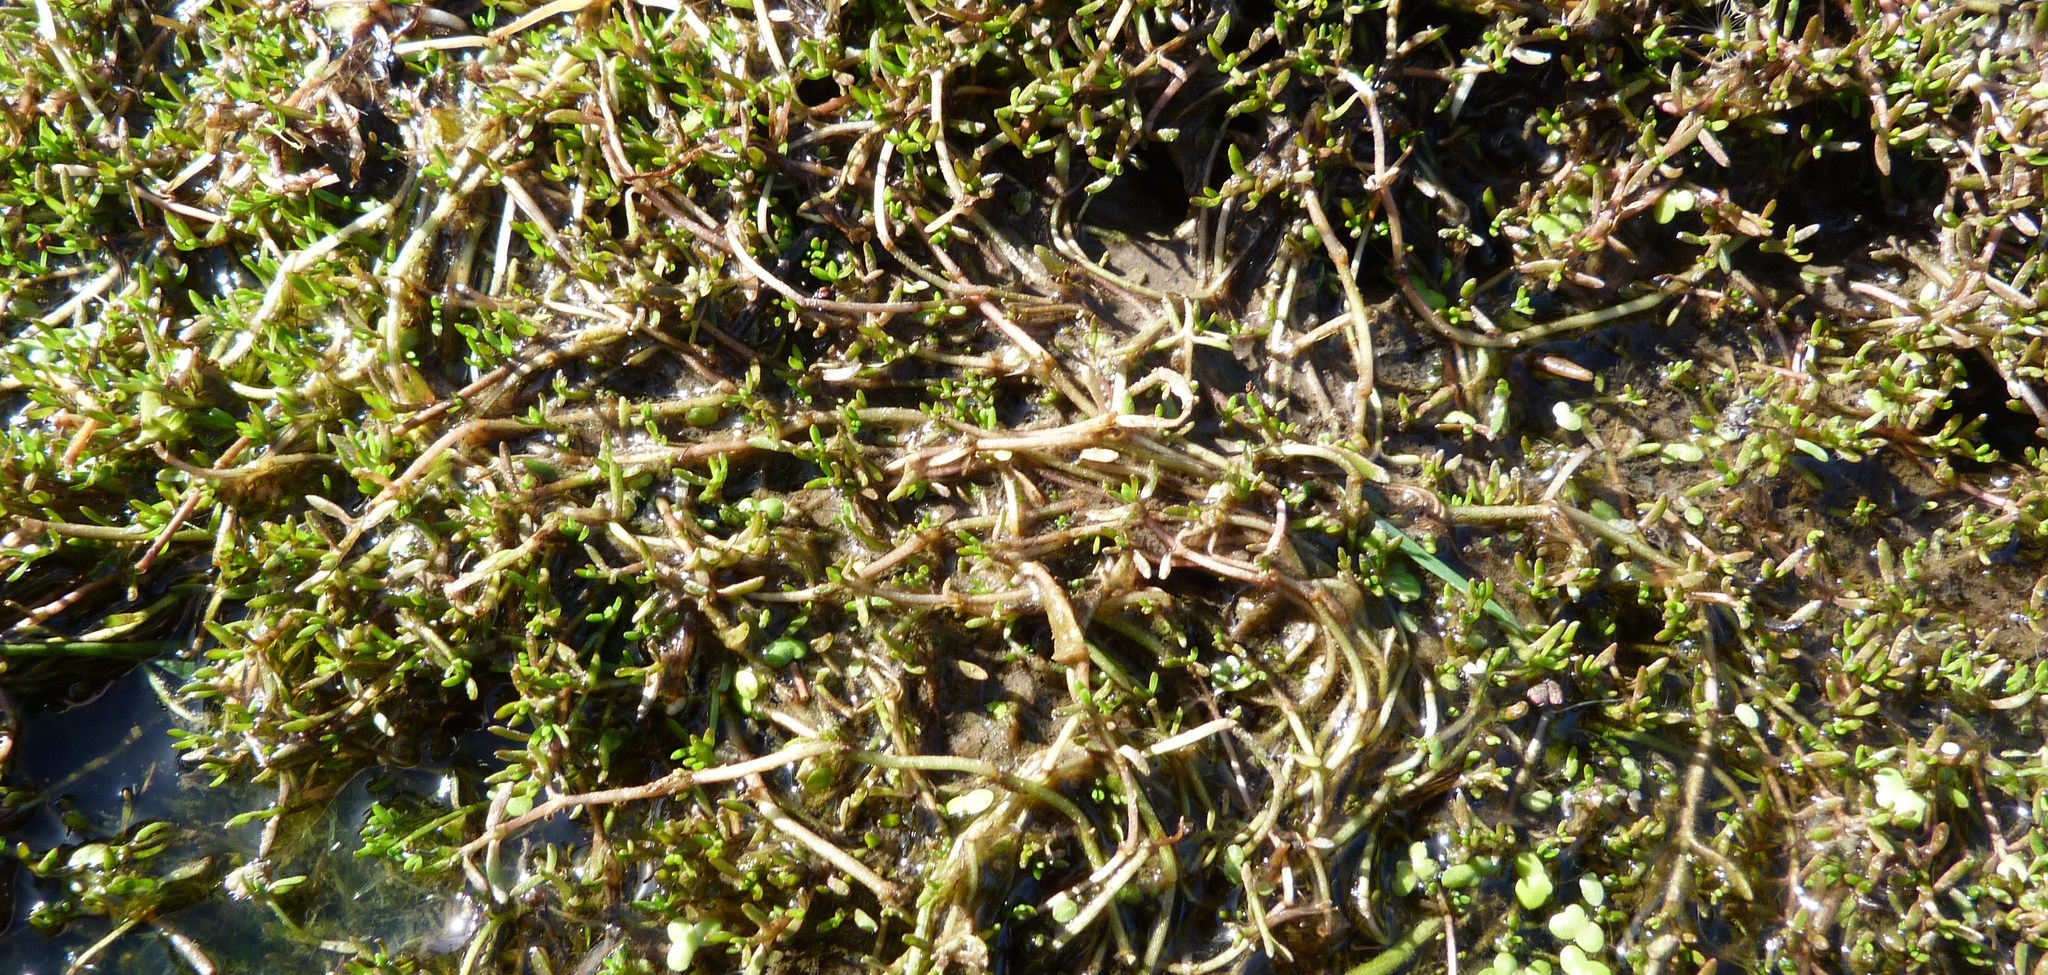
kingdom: Plantae
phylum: Tracheophyta
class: Magnoliopsida
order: Saxifragales
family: Crassulaceae
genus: Crassula
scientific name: Crassula sinclairii
